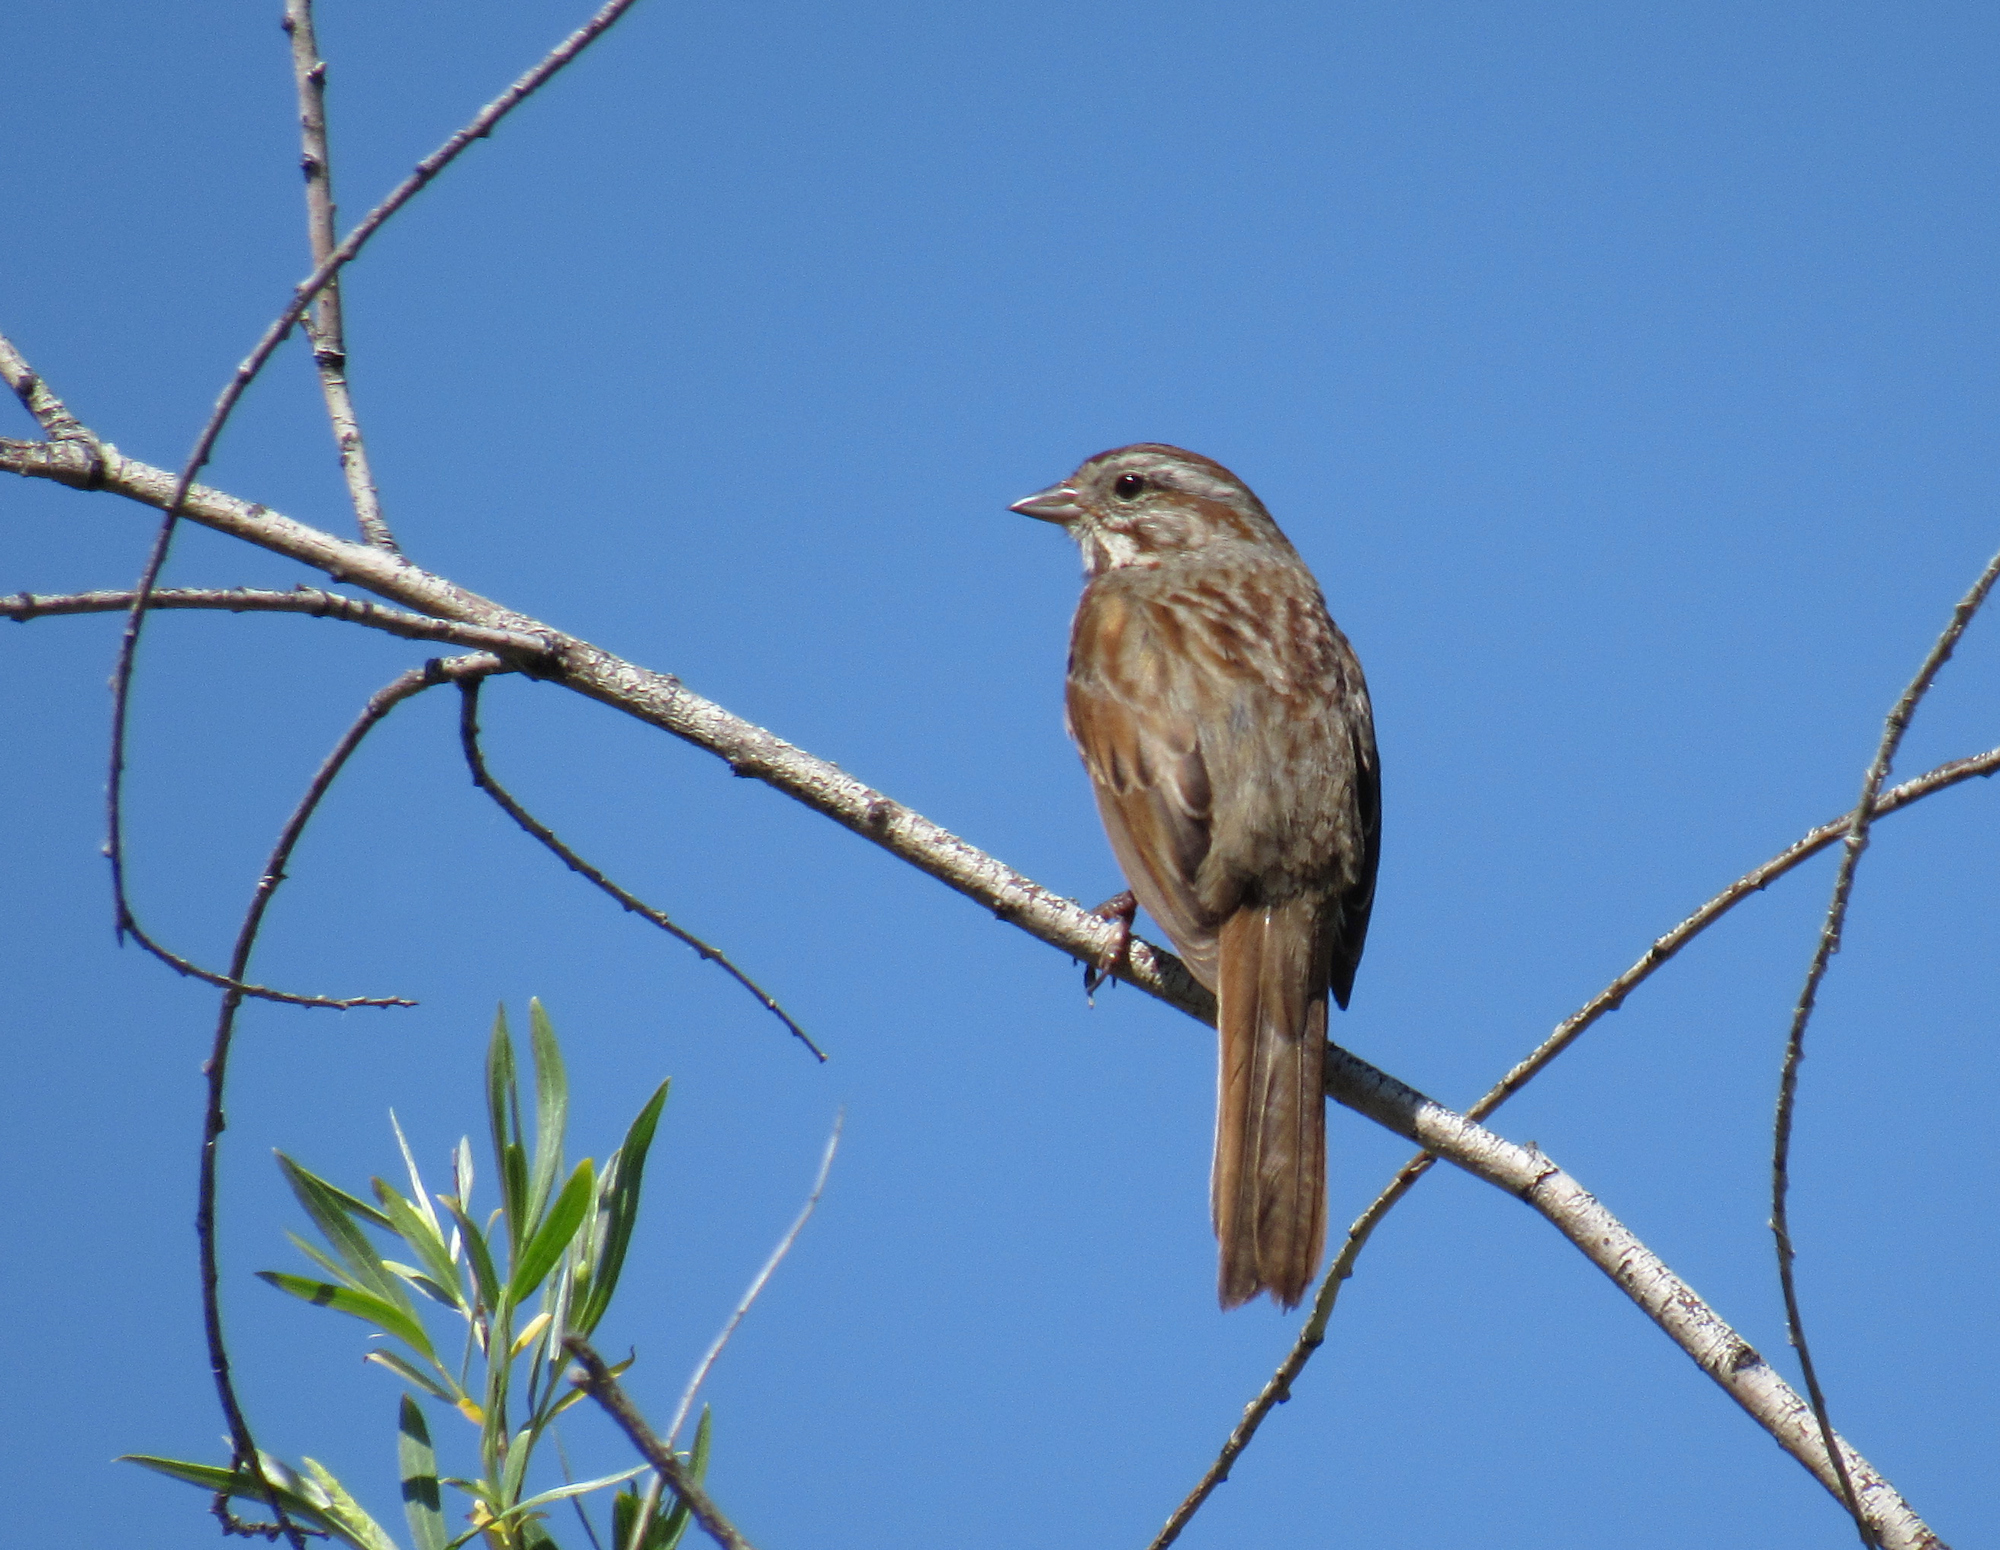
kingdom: Animalia
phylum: Chordata
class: Aves
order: Passeriformes
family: Passerellidae
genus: Melospiza
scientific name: Melospiza melodia
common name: Song sparrow
